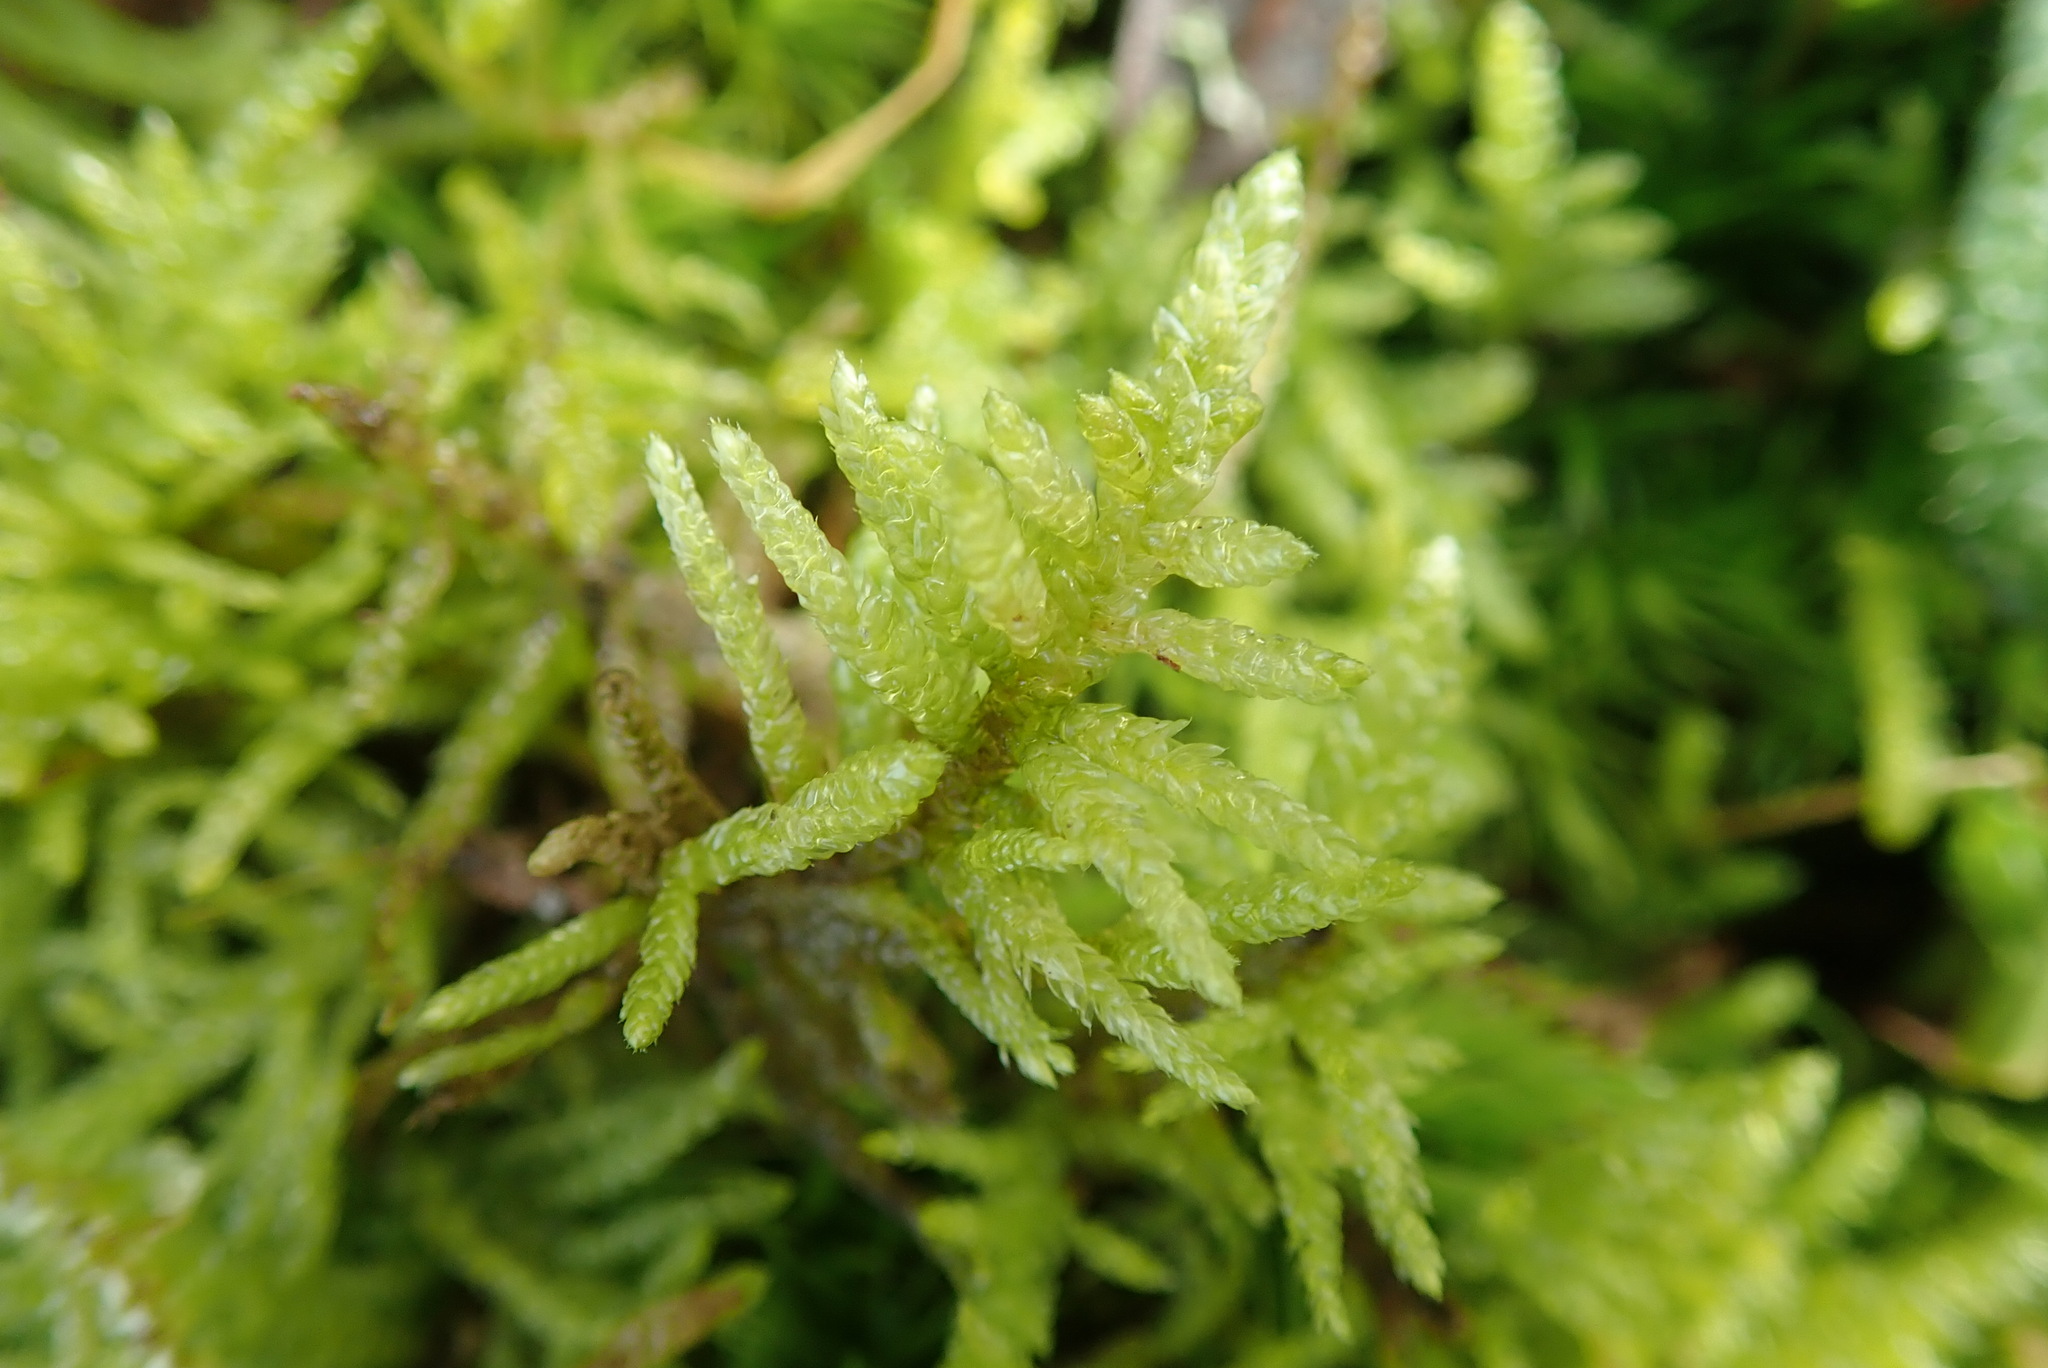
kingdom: Plantae
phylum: Bryophyta
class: Bryopsida
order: Hypnales
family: Brachytheciaceae
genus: Pseudoscleropodium
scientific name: Pseudoscleropodium purum
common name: Neat feather-moss
